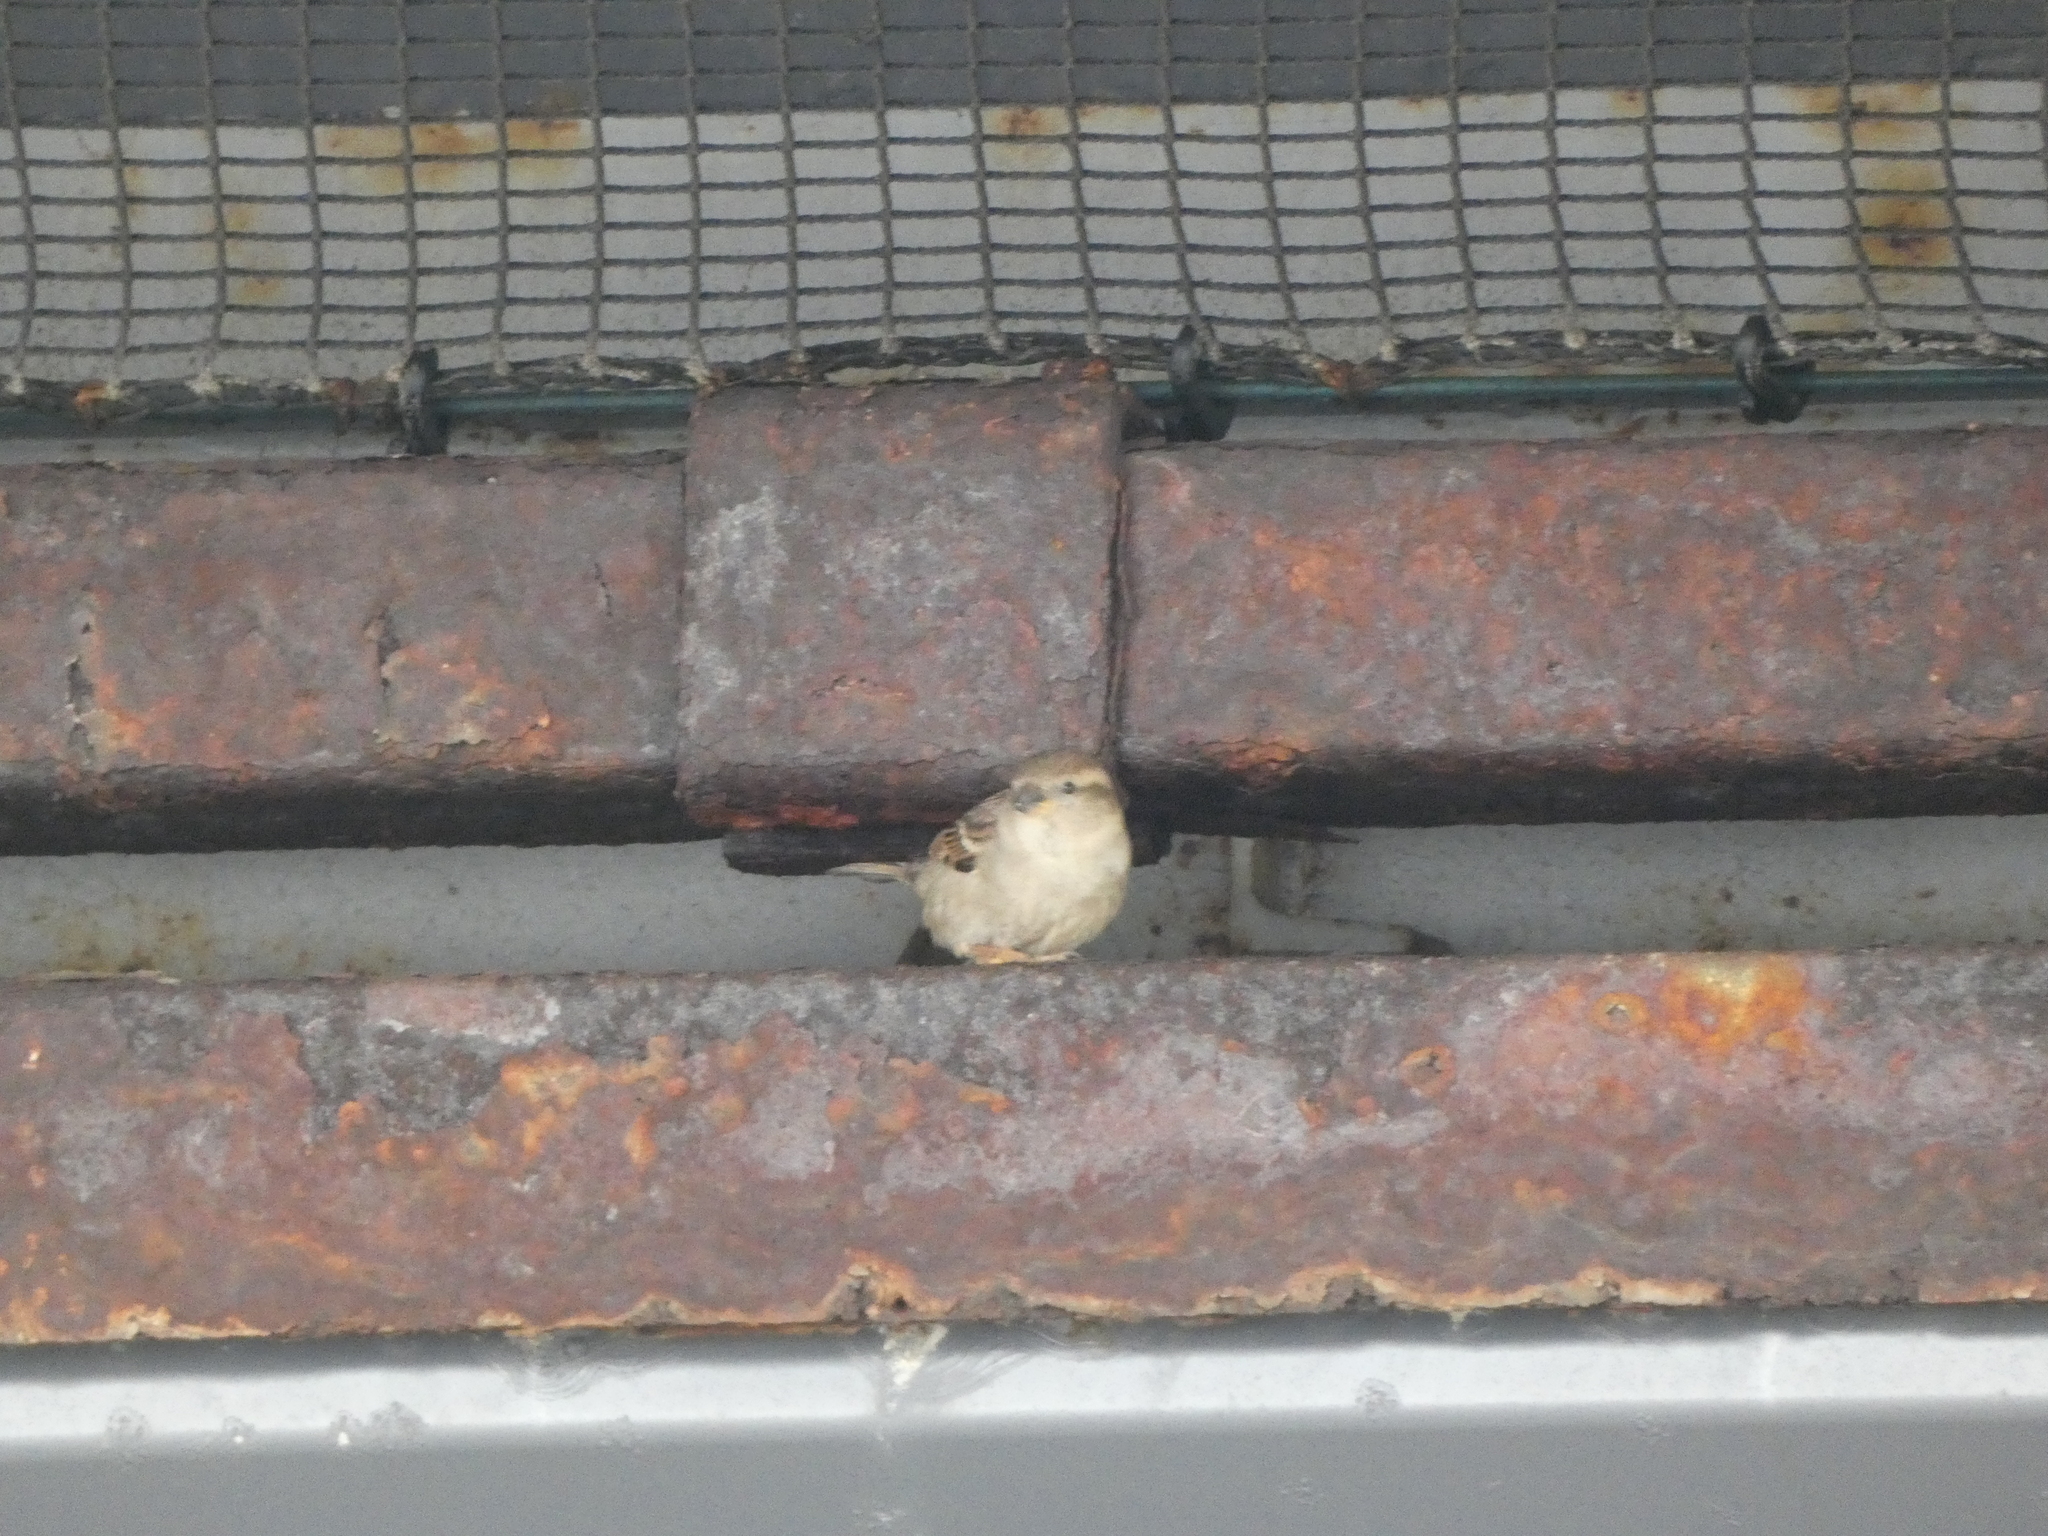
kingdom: Animalia
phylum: Chordata
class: Aves
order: Passeriformes
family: Passeridae
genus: Passer
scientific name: Passer domesticus
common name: House sparrow
